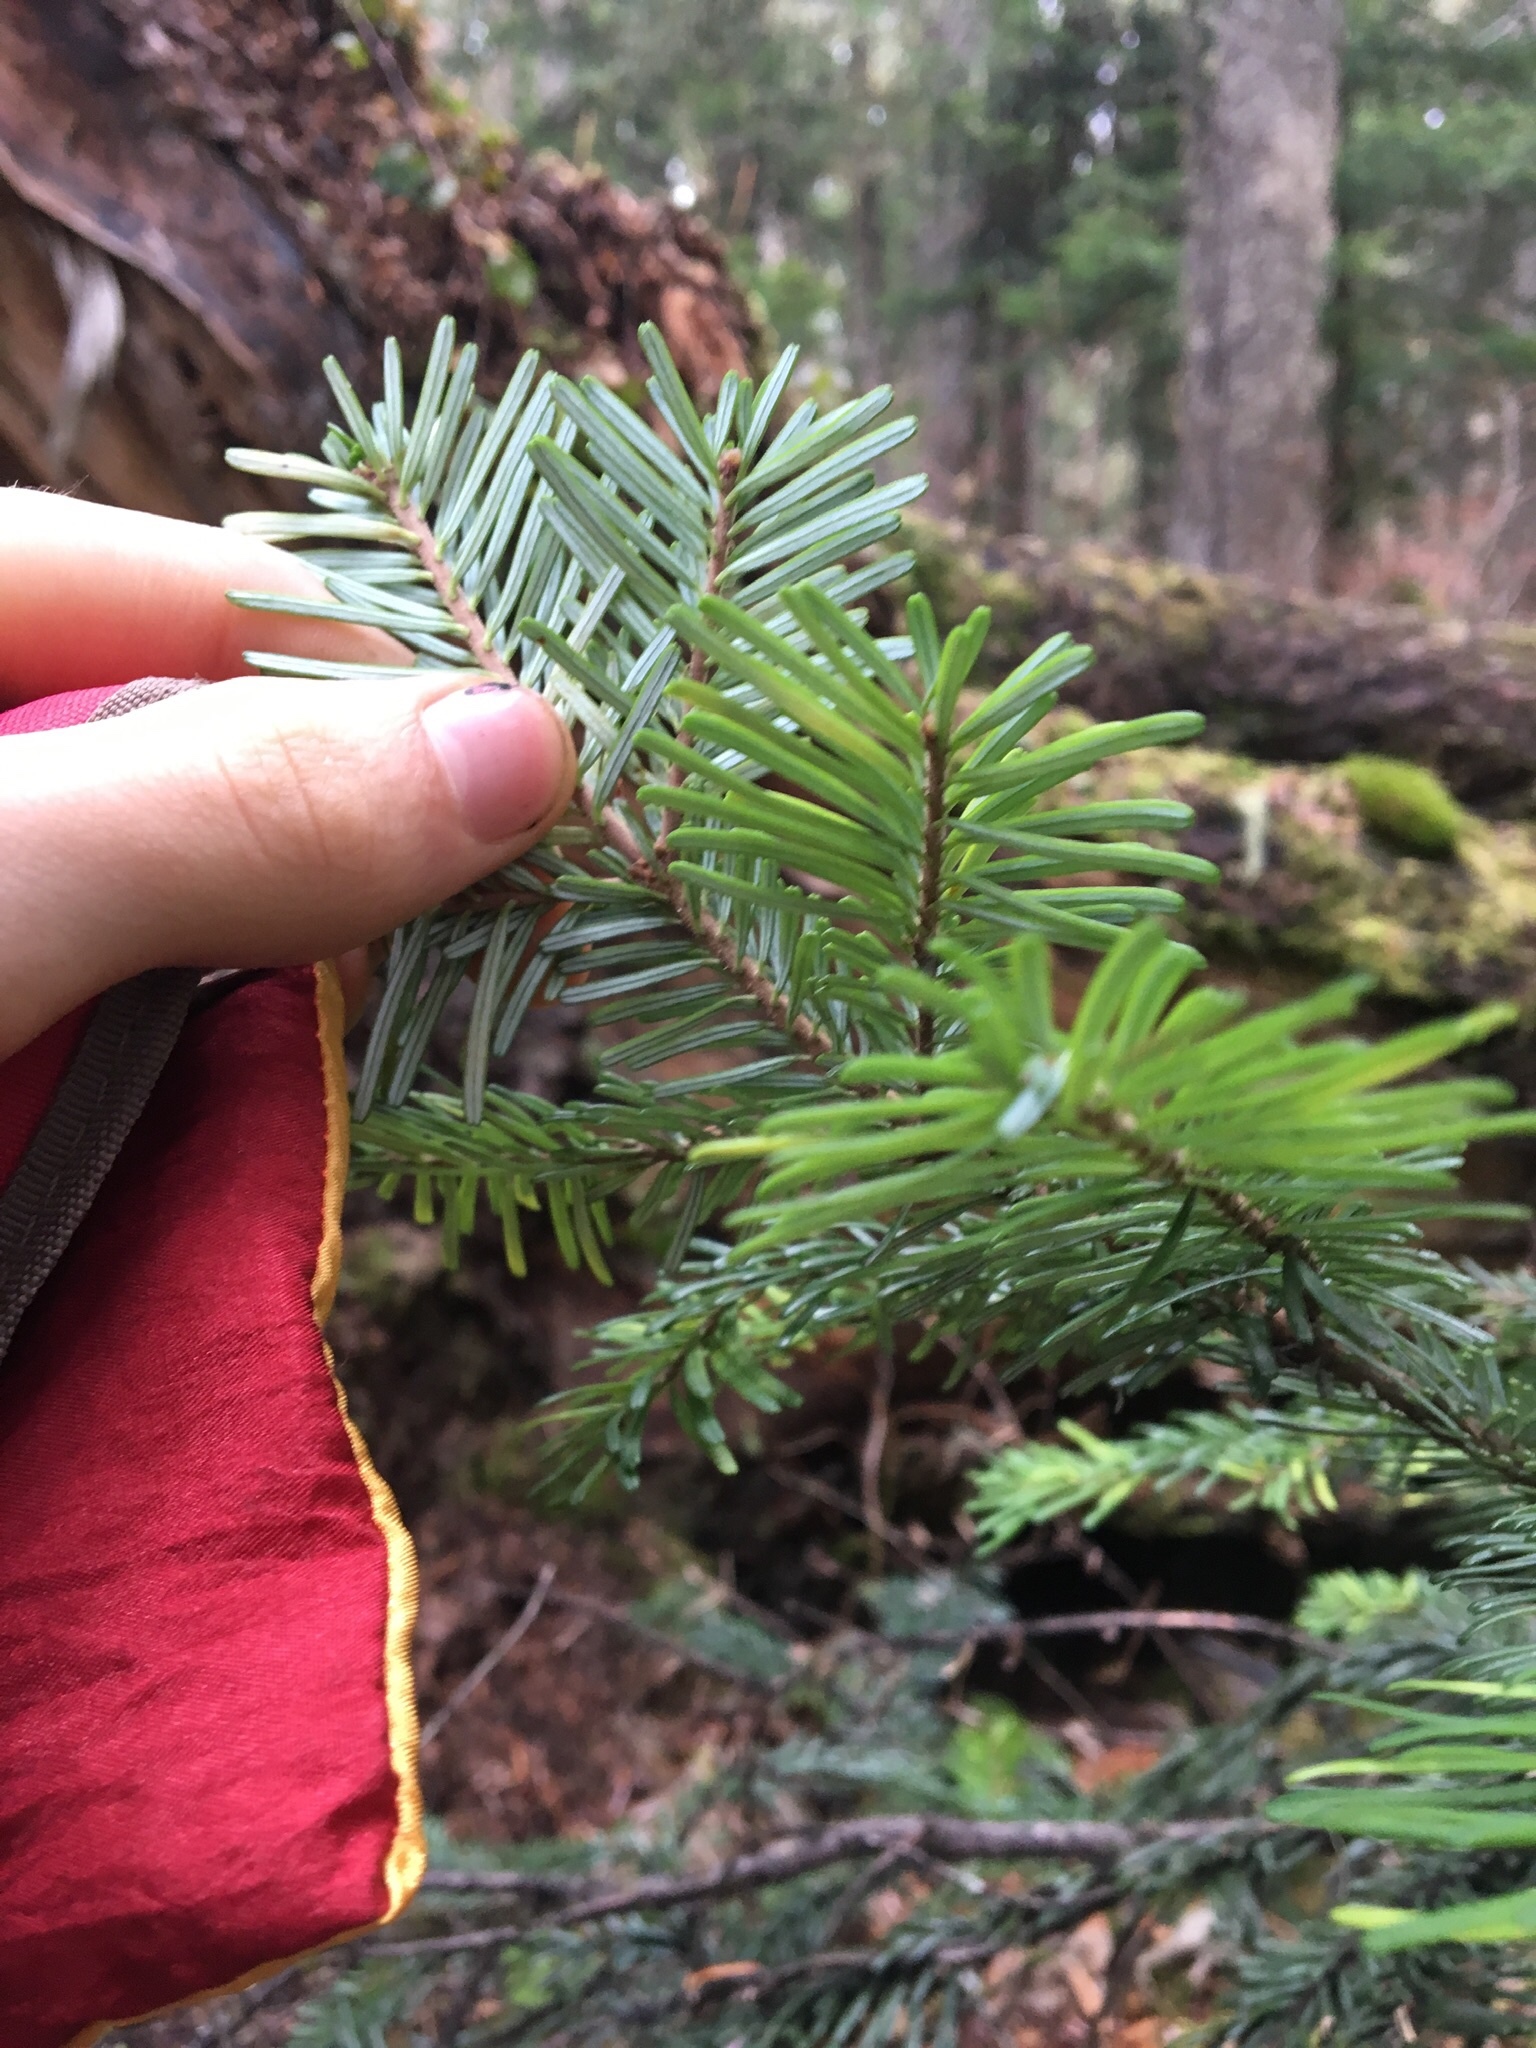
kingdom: Plantae
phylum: Tracheophyta
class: Pinopsida
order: Pinales
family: Pinaceae
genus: Abies
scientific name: Abies amabilis
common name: Pacific silver fir
